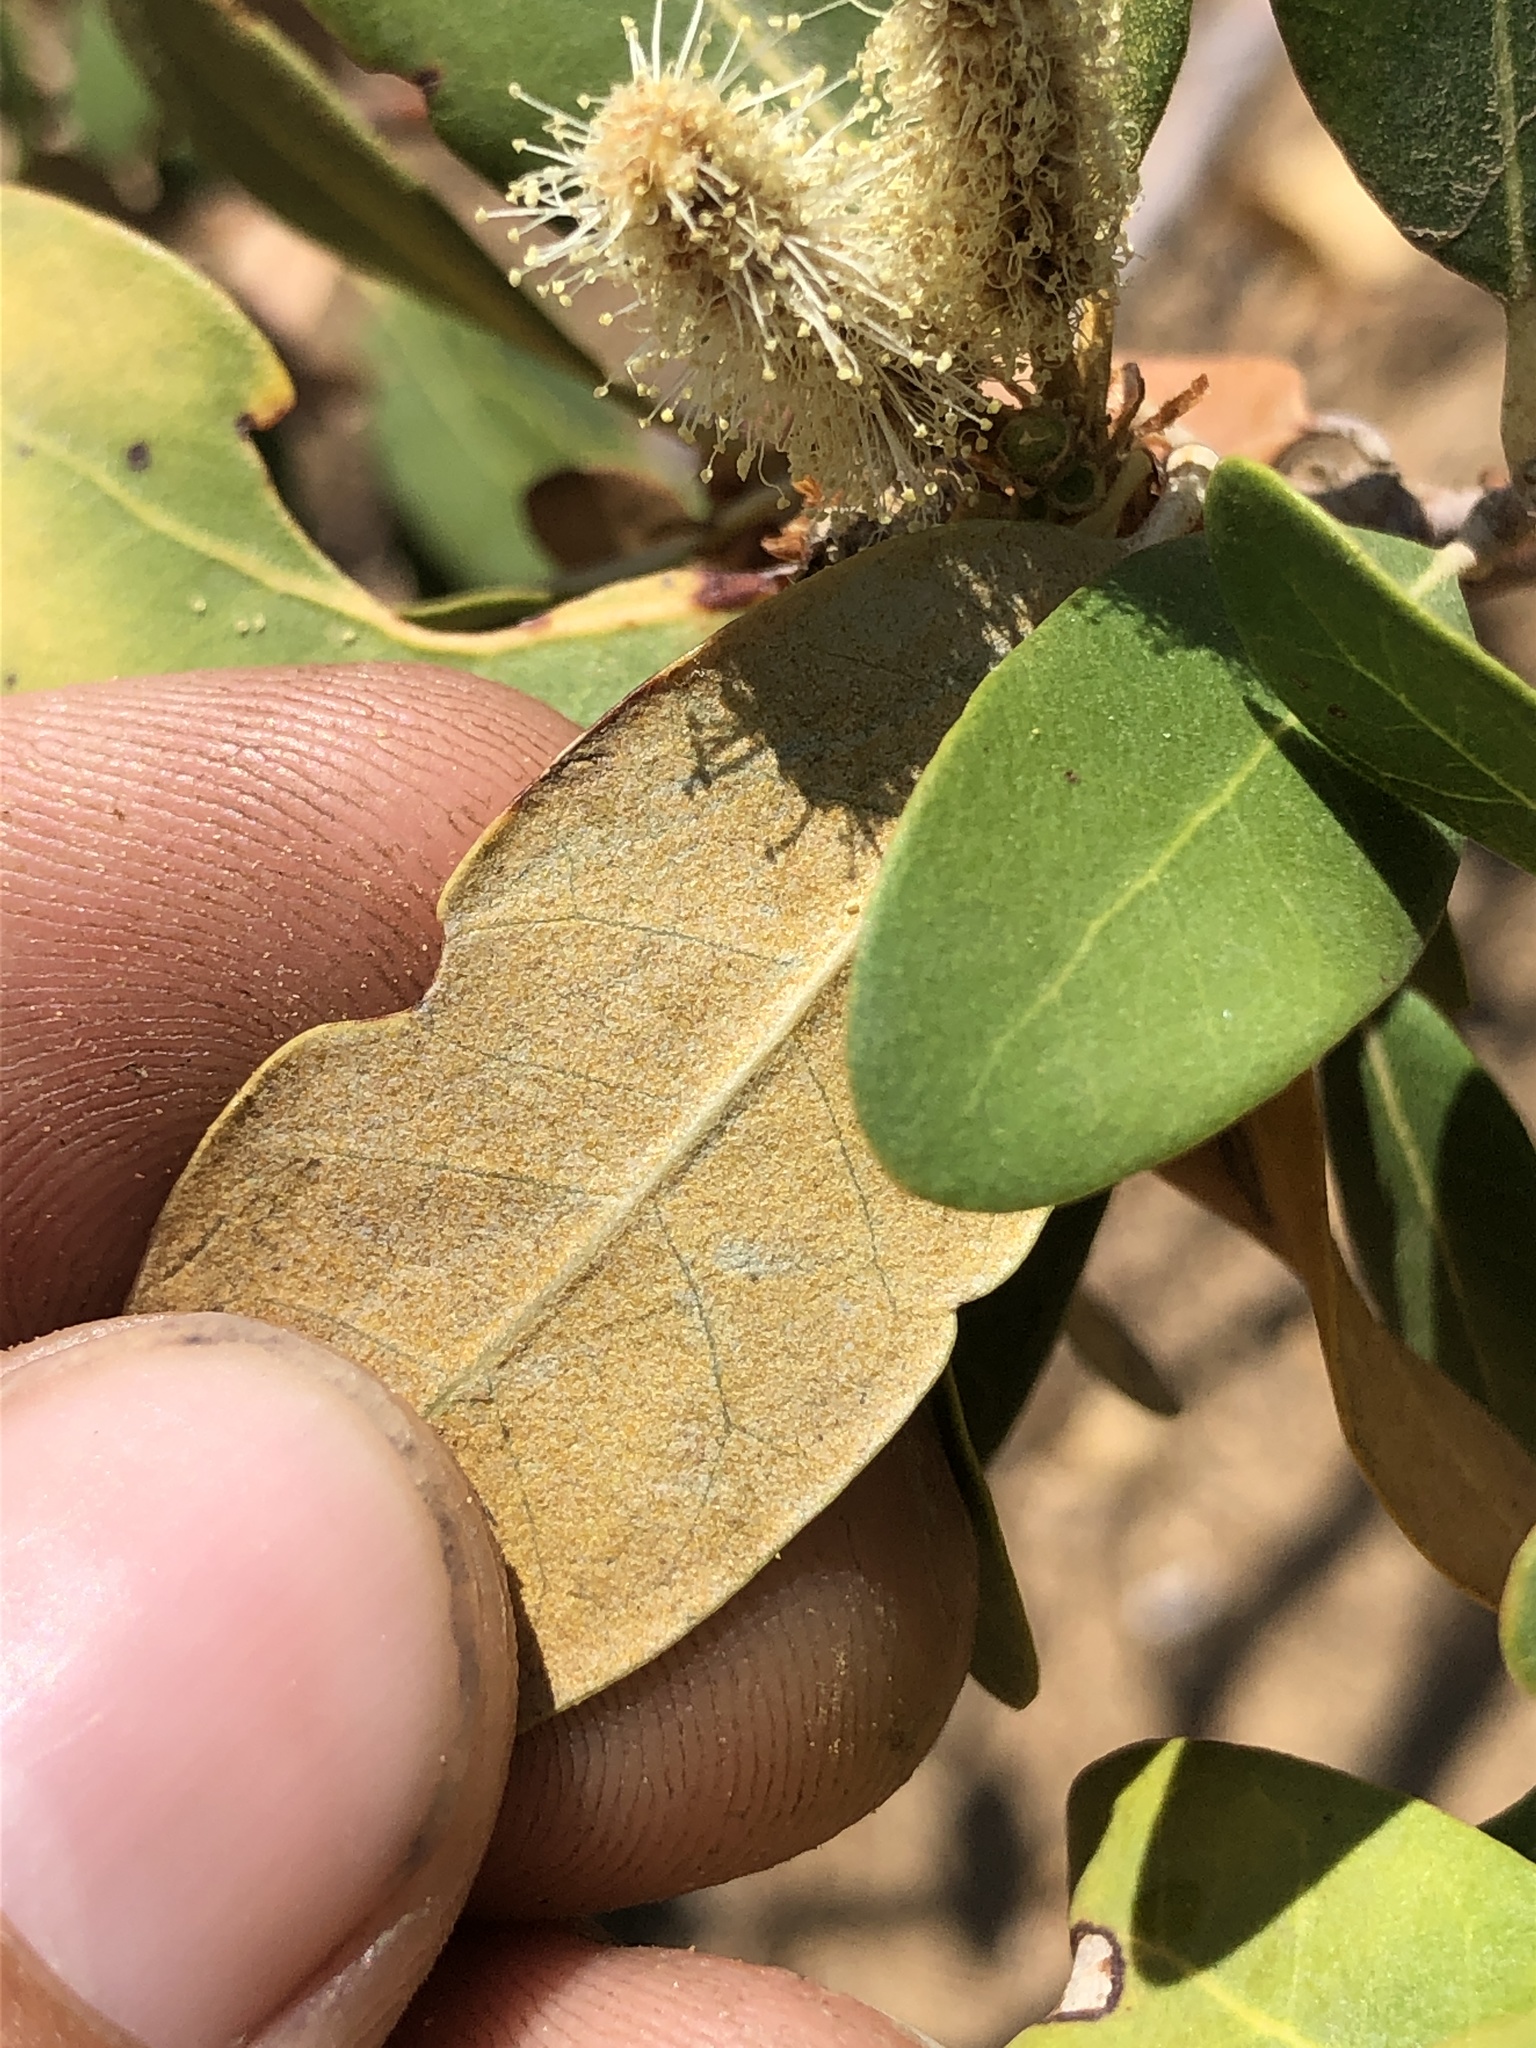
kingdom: Plantae
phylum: Tracheophyta
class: Magnoliopsida
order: Fagales
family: Fagaceae
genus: Chrysolepis
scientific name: Chrysolepis sempervirens
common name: Bush chinquapin
